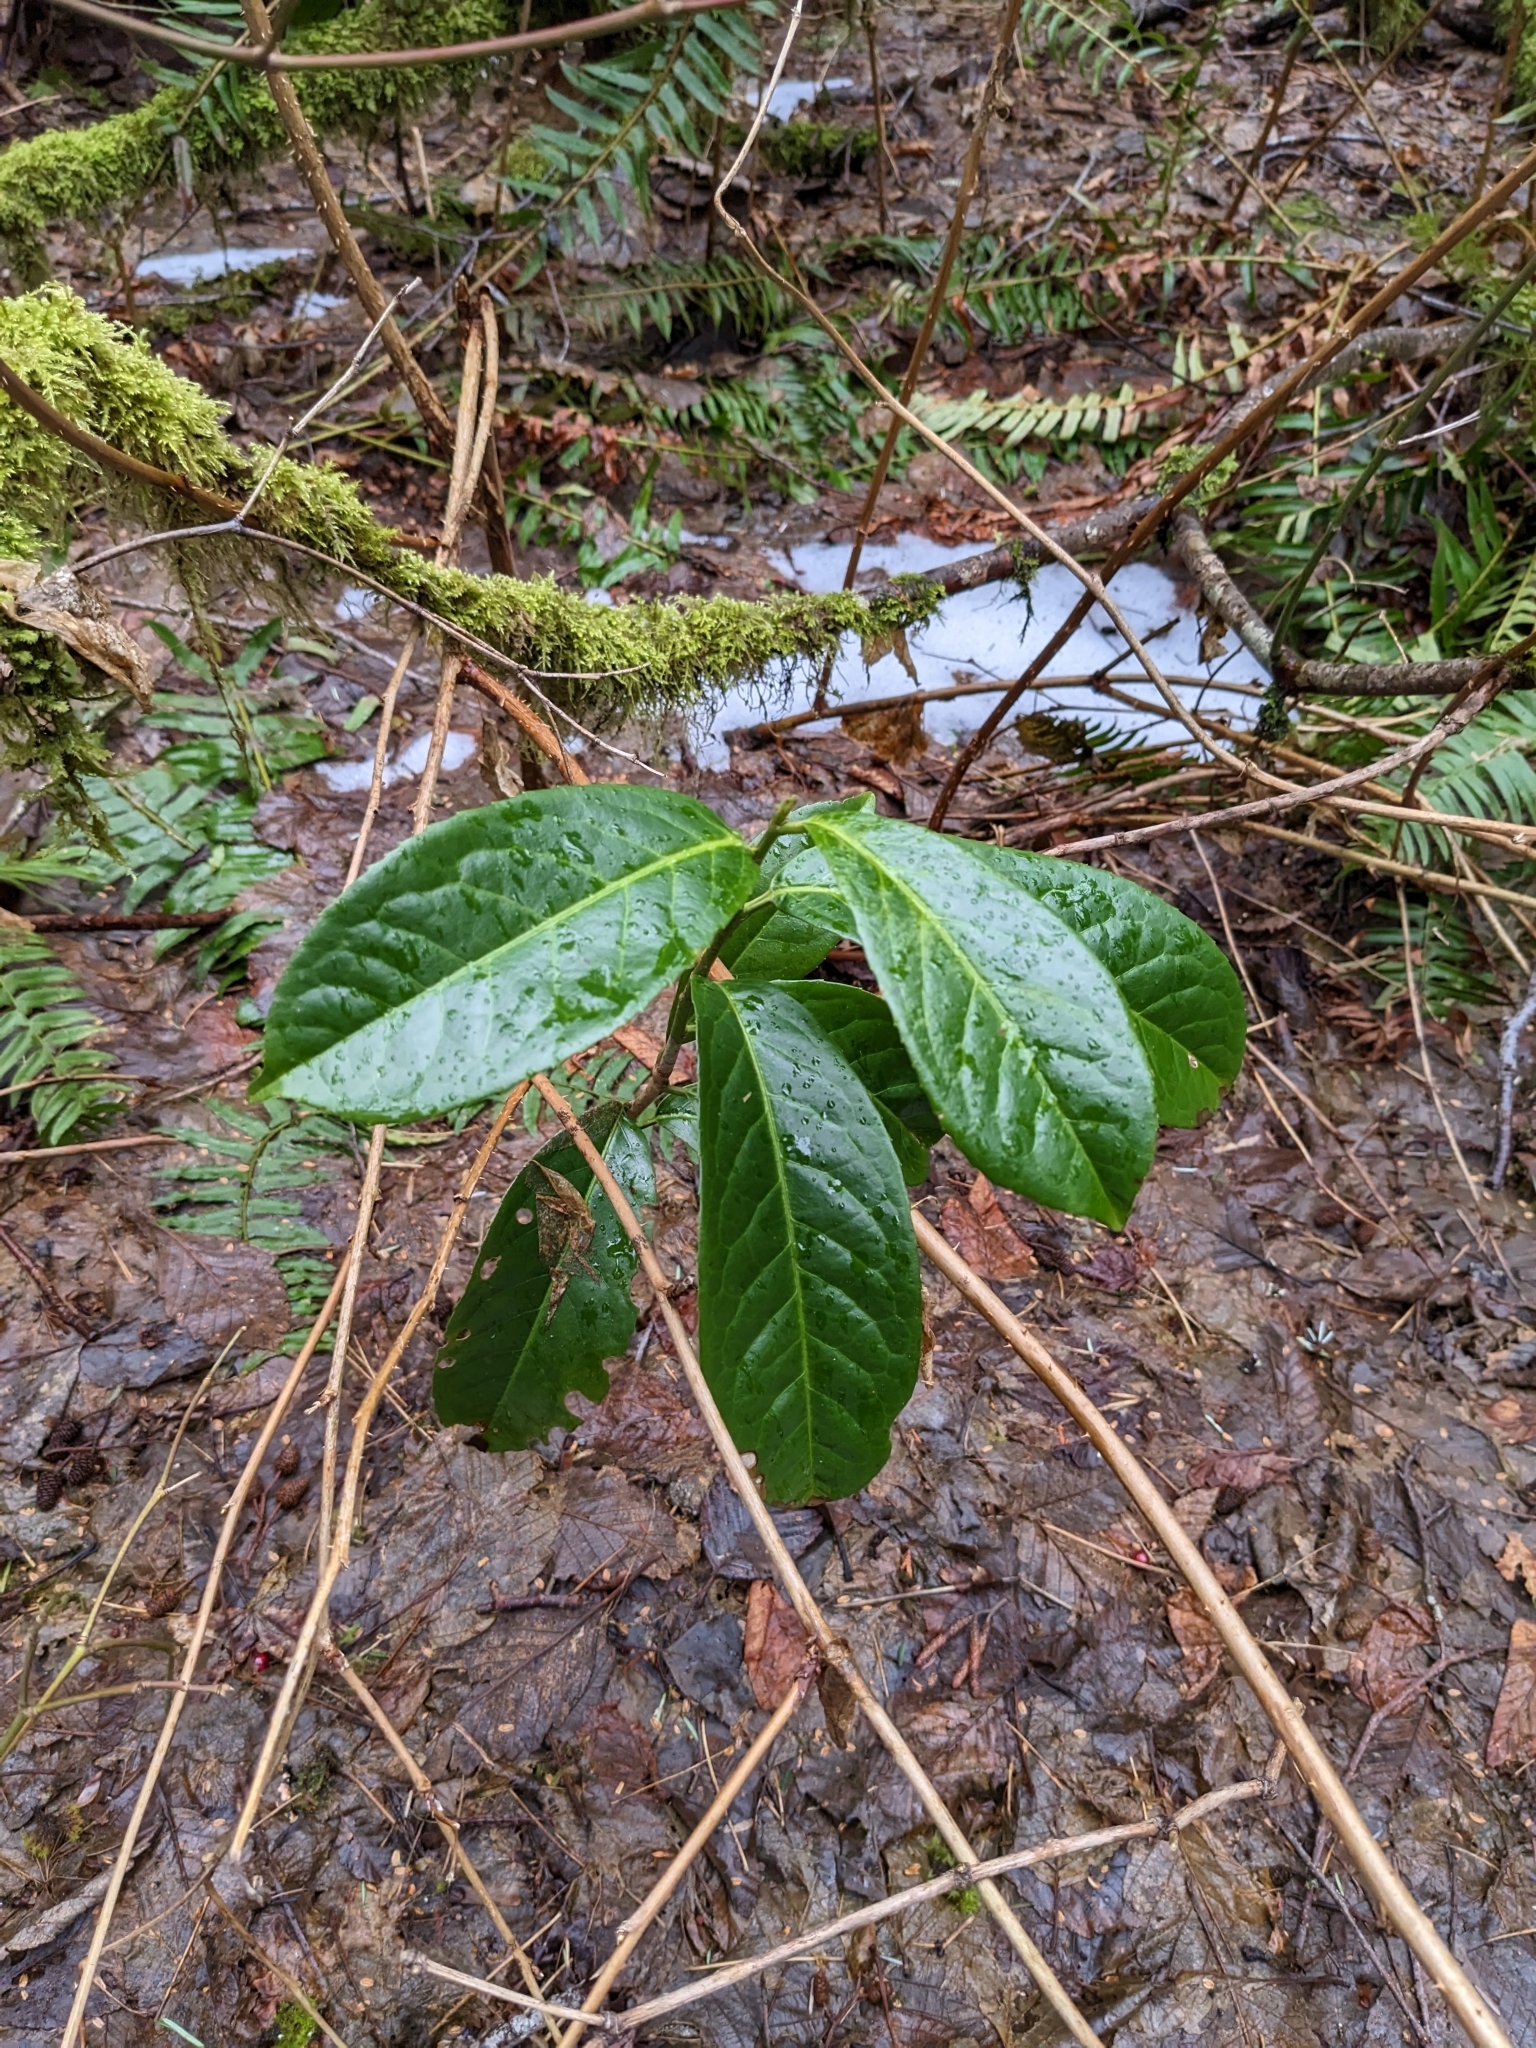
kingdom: Plantae
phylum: Tracheophyta
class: Magnoliopsida
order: Rosales
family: Rosaceae
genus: Prunus
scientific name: Prunus laurocerasus
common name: Cherry laurel
